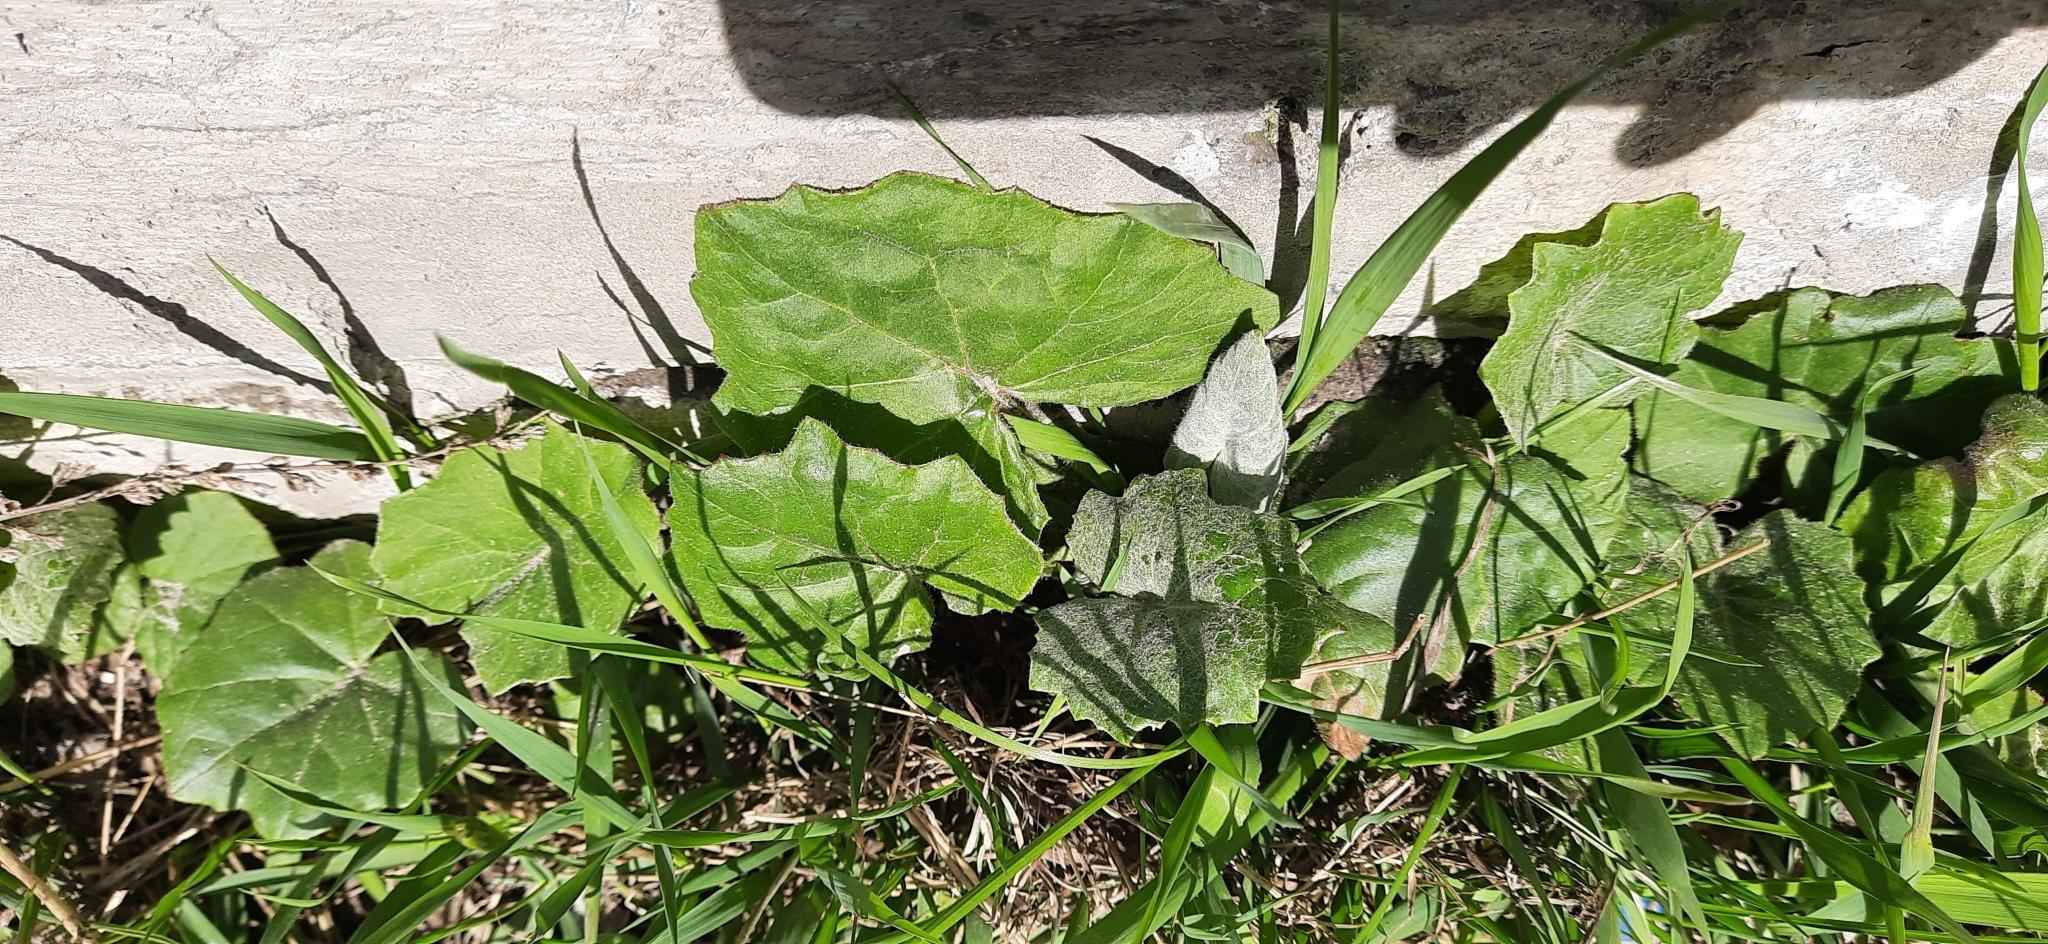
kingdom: Plantae
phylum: Tracheophyta
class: Magnoliopsida
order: Asterales
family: Asteraceae
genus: Tussilago
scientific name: Tussilago farfara
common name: Coltsfoot
